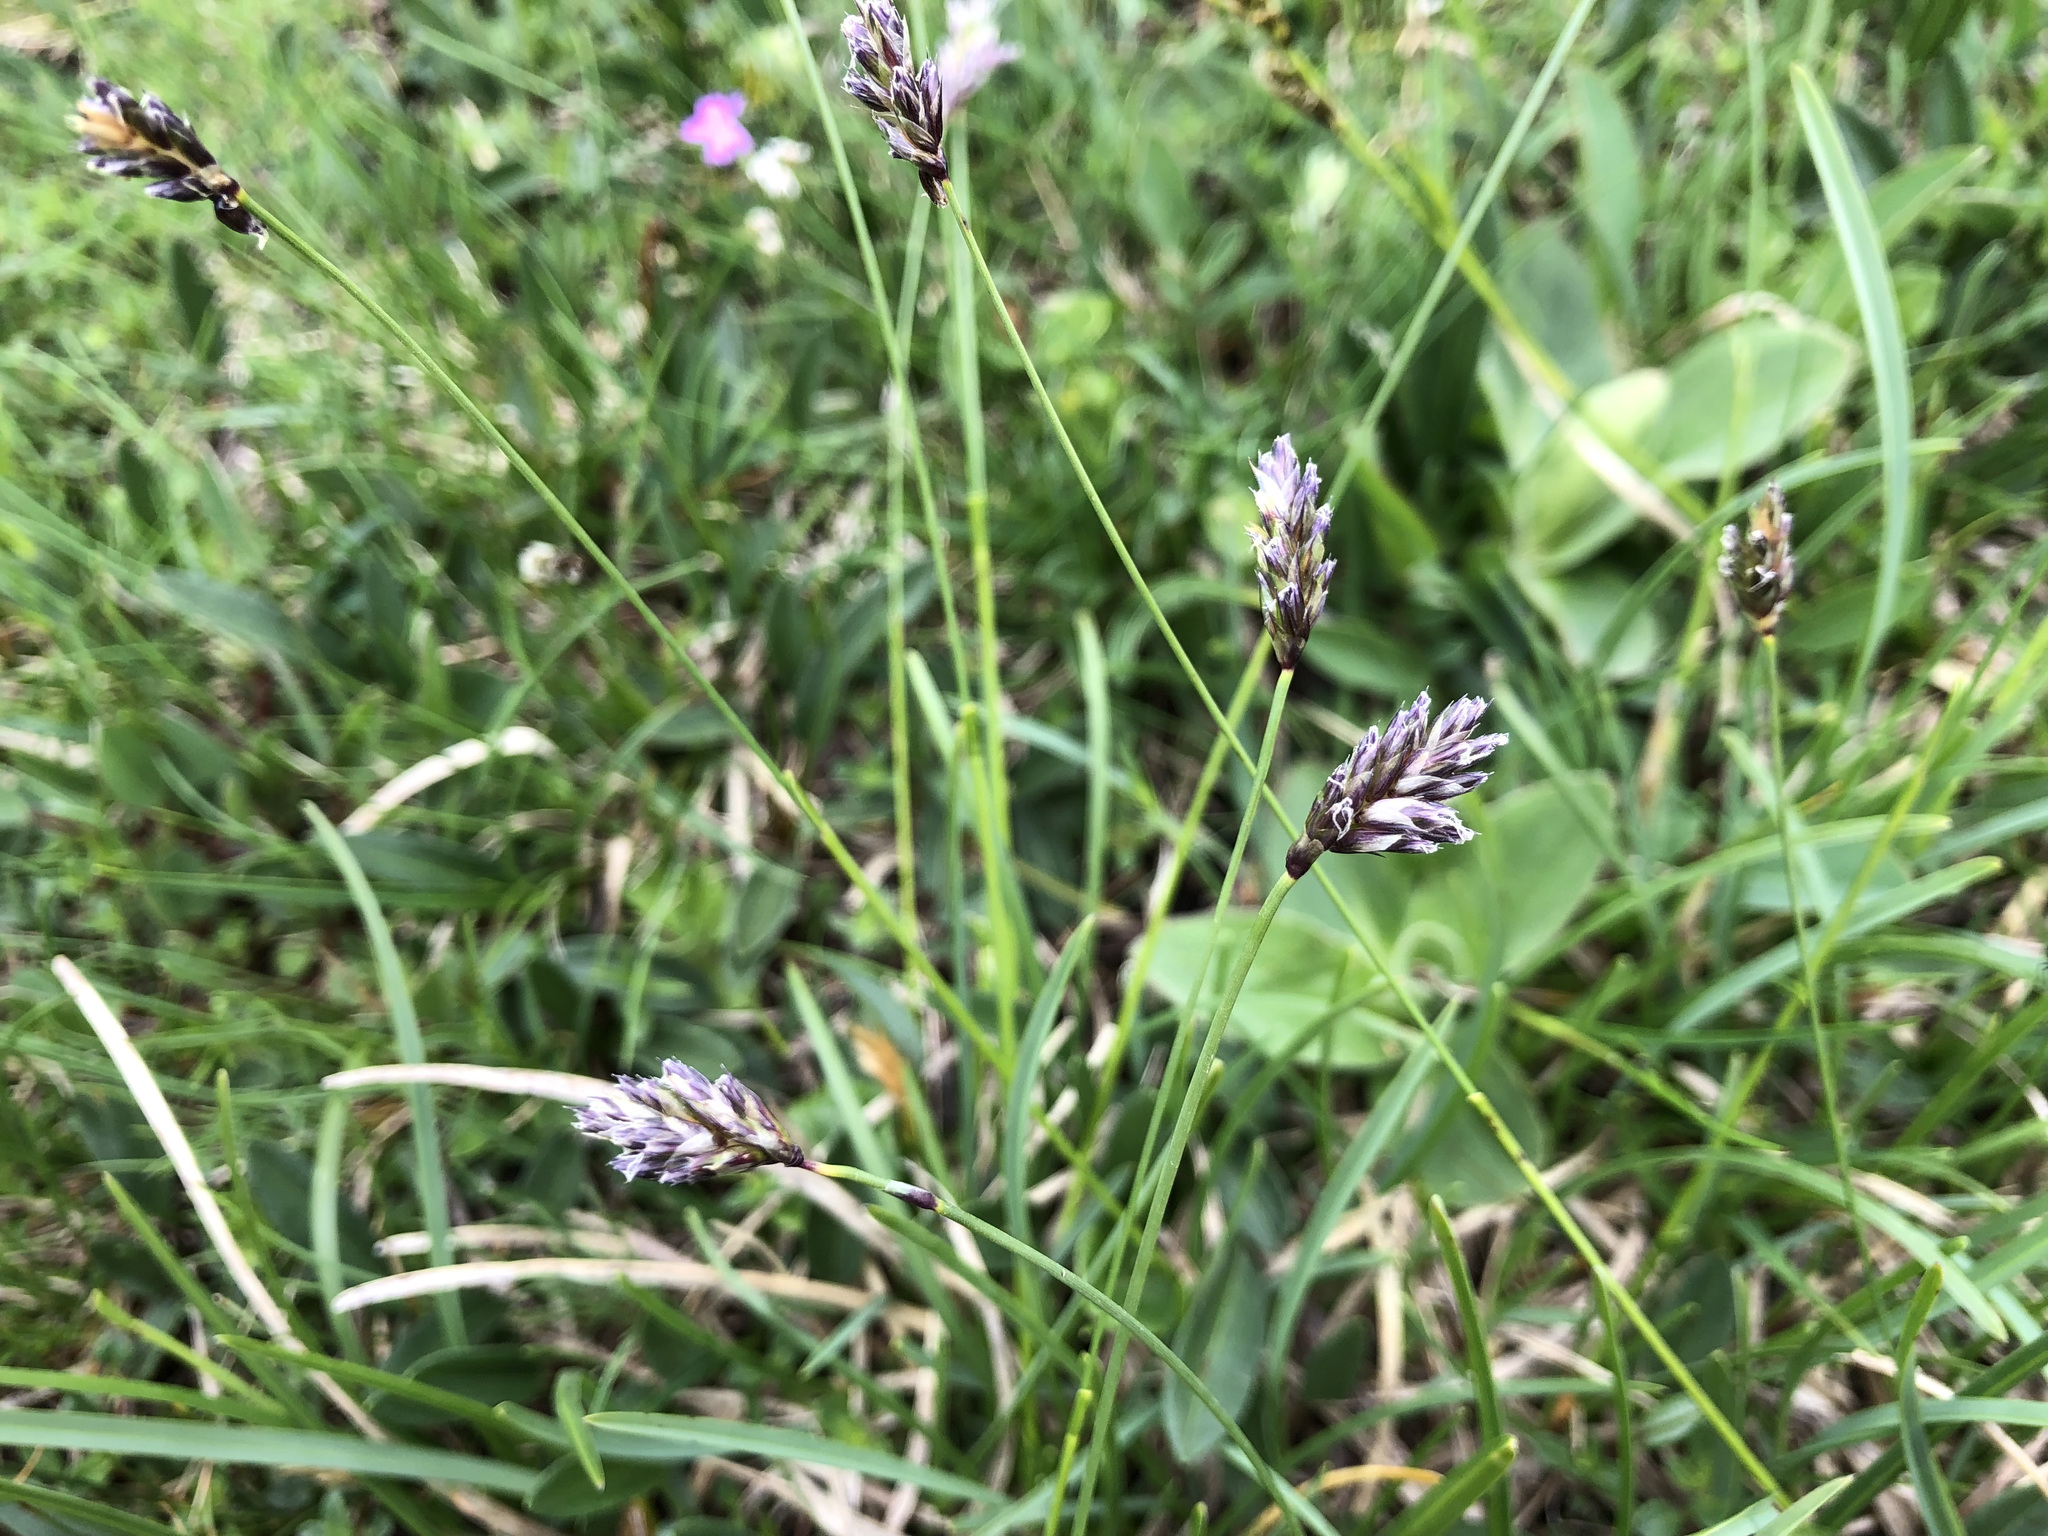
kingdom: Plantae
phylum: Tracheophyta
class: Liliopsida
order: Poales
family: Poaceae
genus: Sesleria
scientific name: Sesleria caerulea
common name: Blue moor-grass
